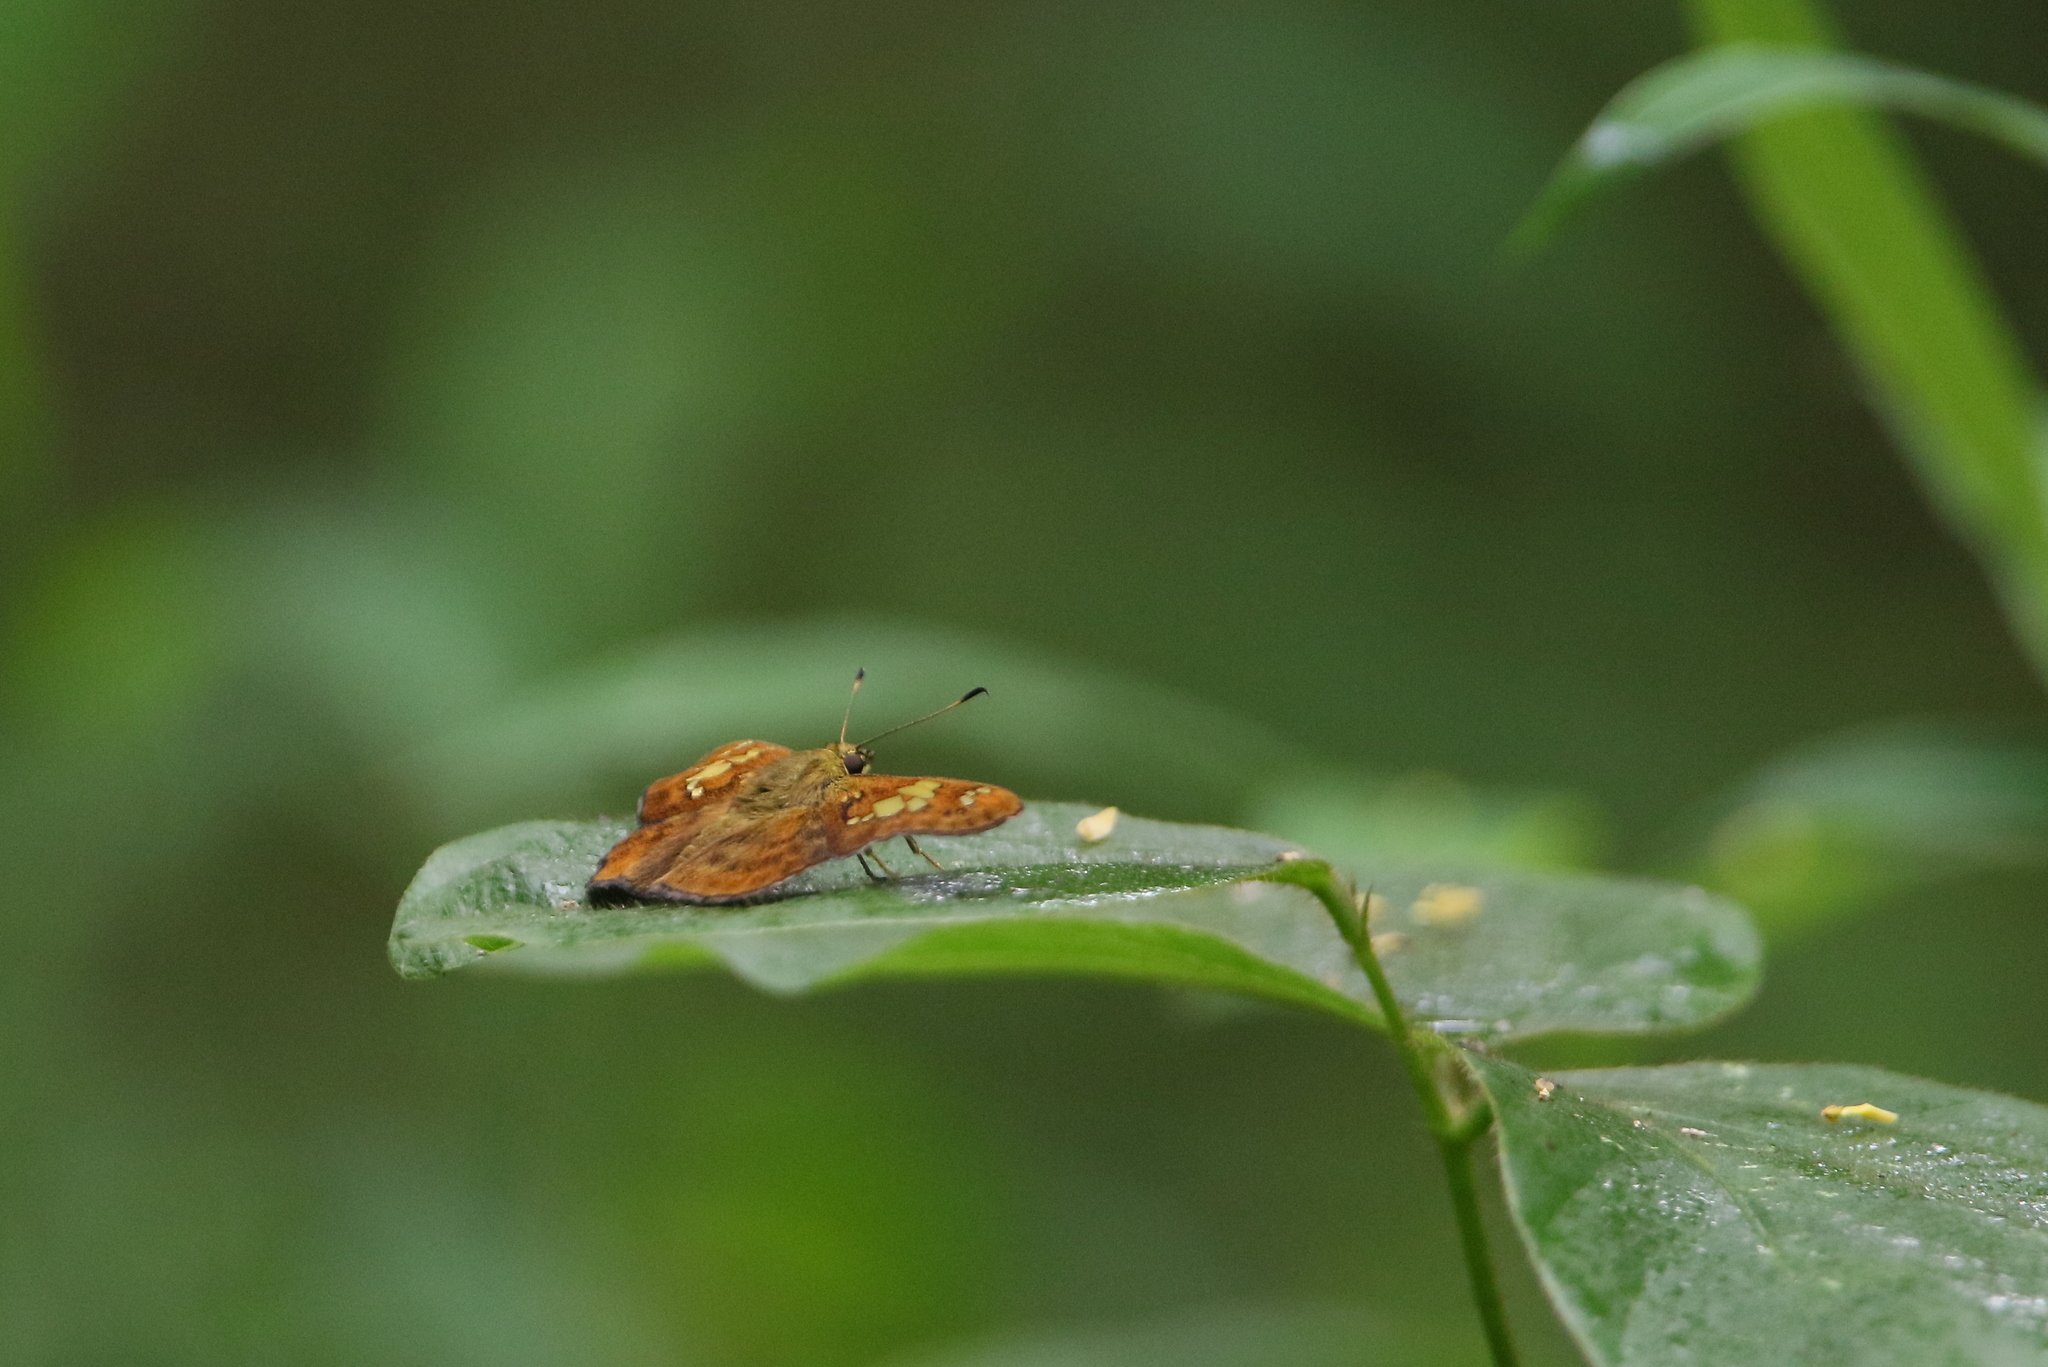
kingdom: Animalia
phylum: Arthropoda
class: Insecta
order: Lepidoptera
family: Hesperiidae
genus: Pseudocoladenia
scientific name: Pseudocoladenia dan
